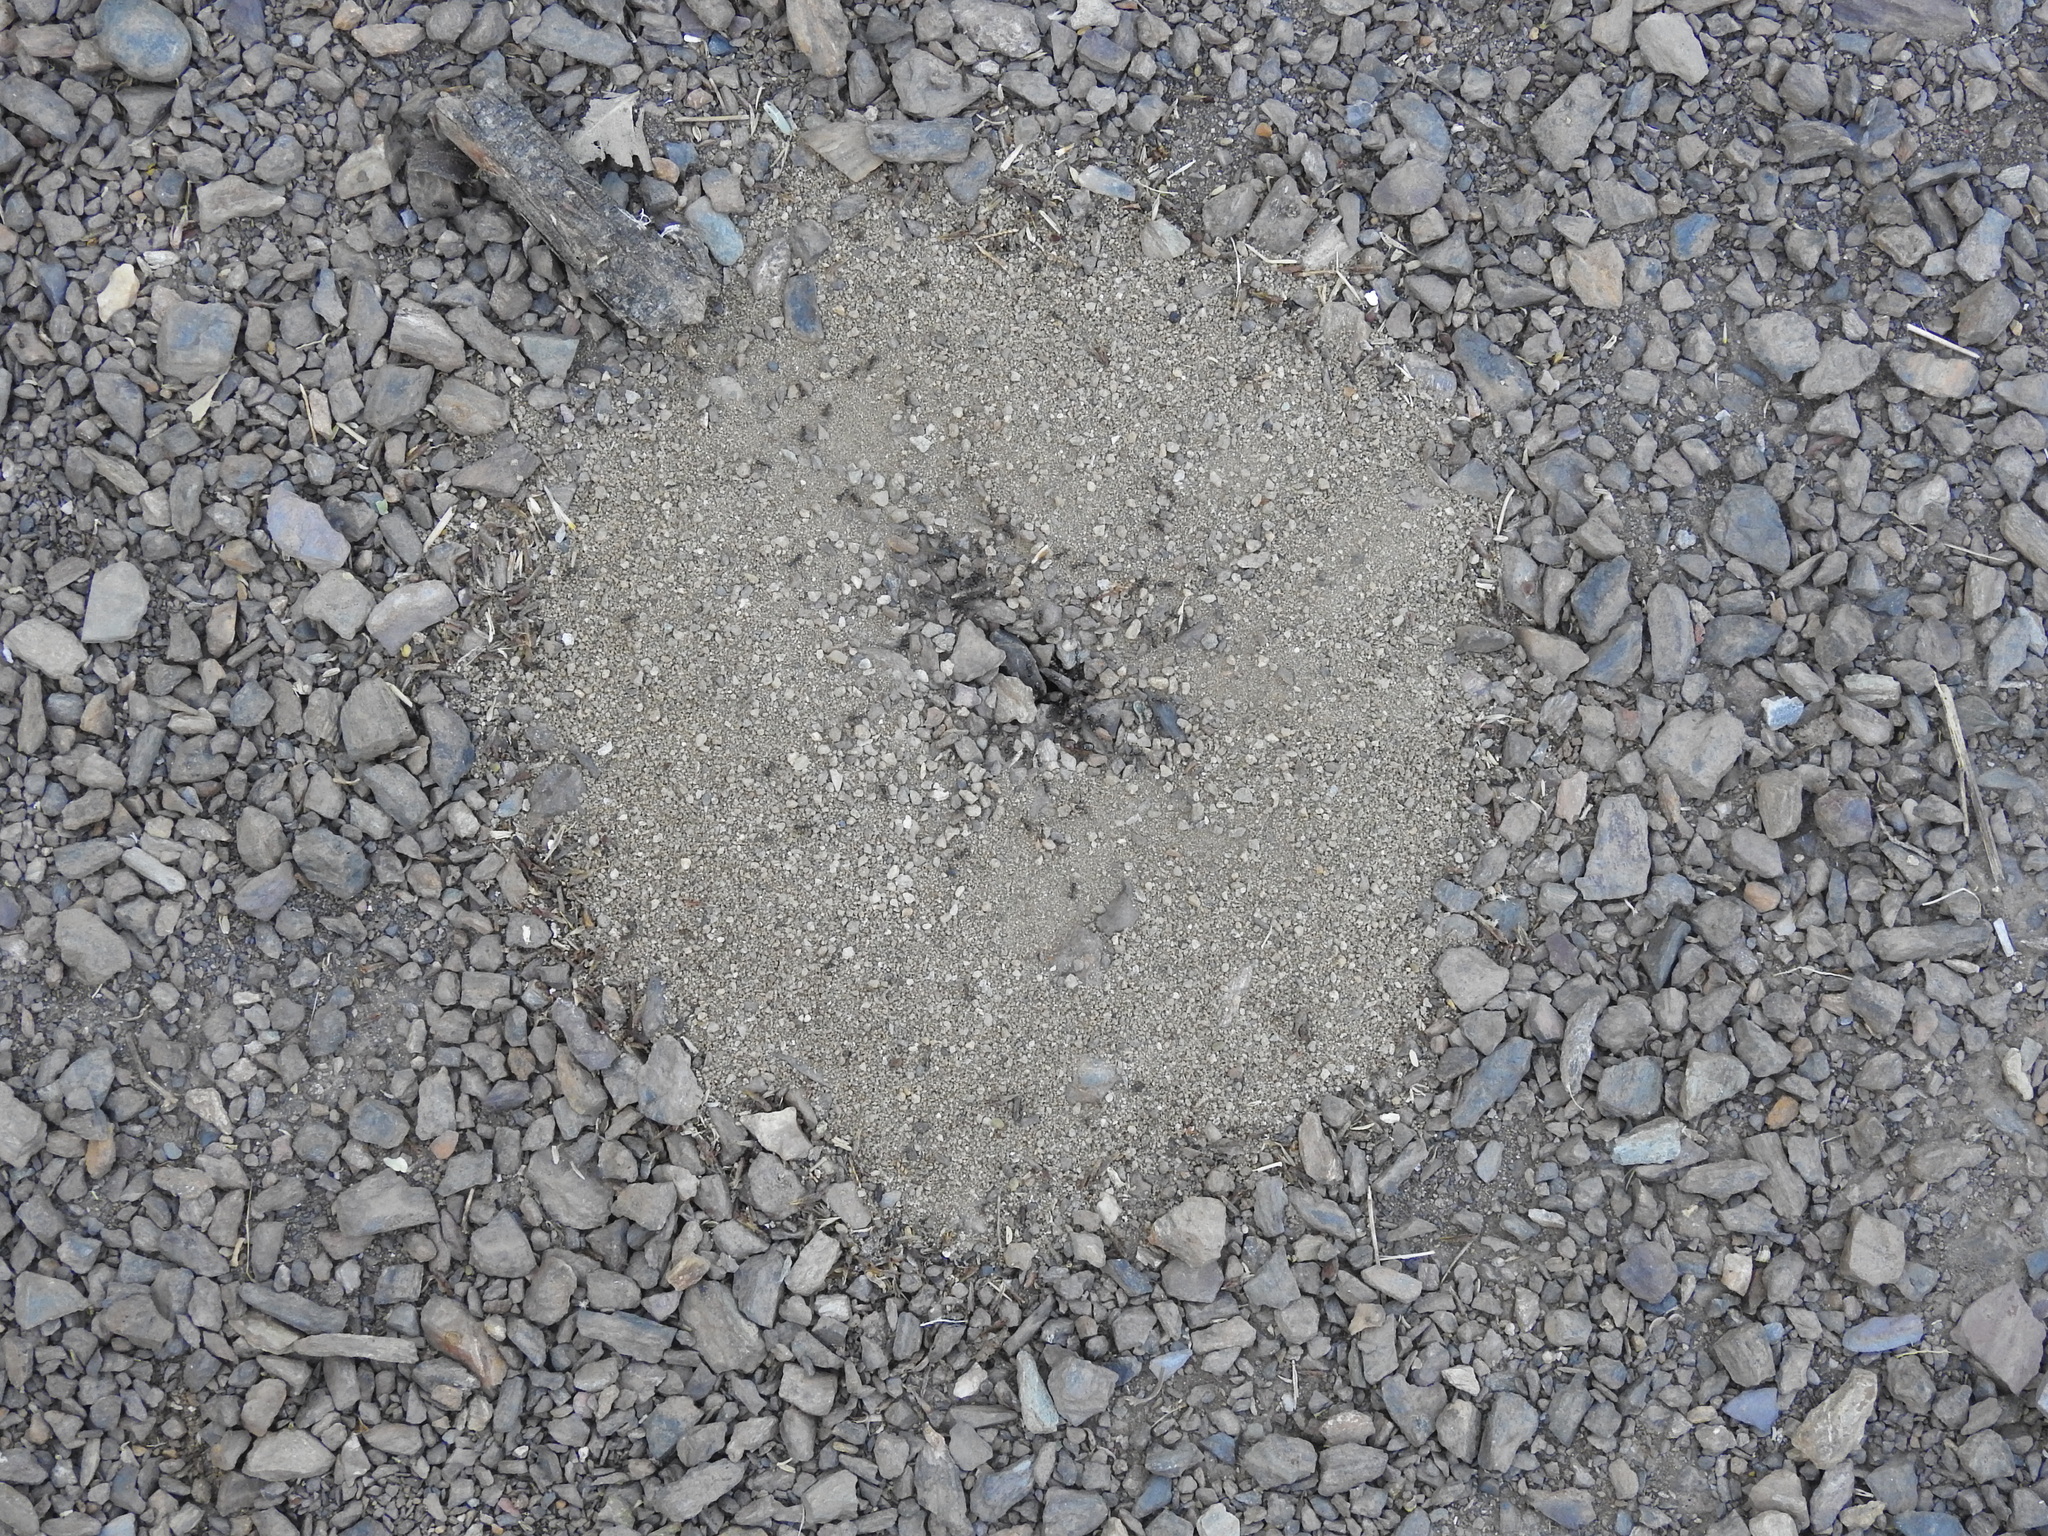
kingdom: Animalia
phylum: Arthropoda
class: Insecta
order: Hymenoptera
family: Formicidae
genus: Pheidole
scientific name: Pheidole xerophila
